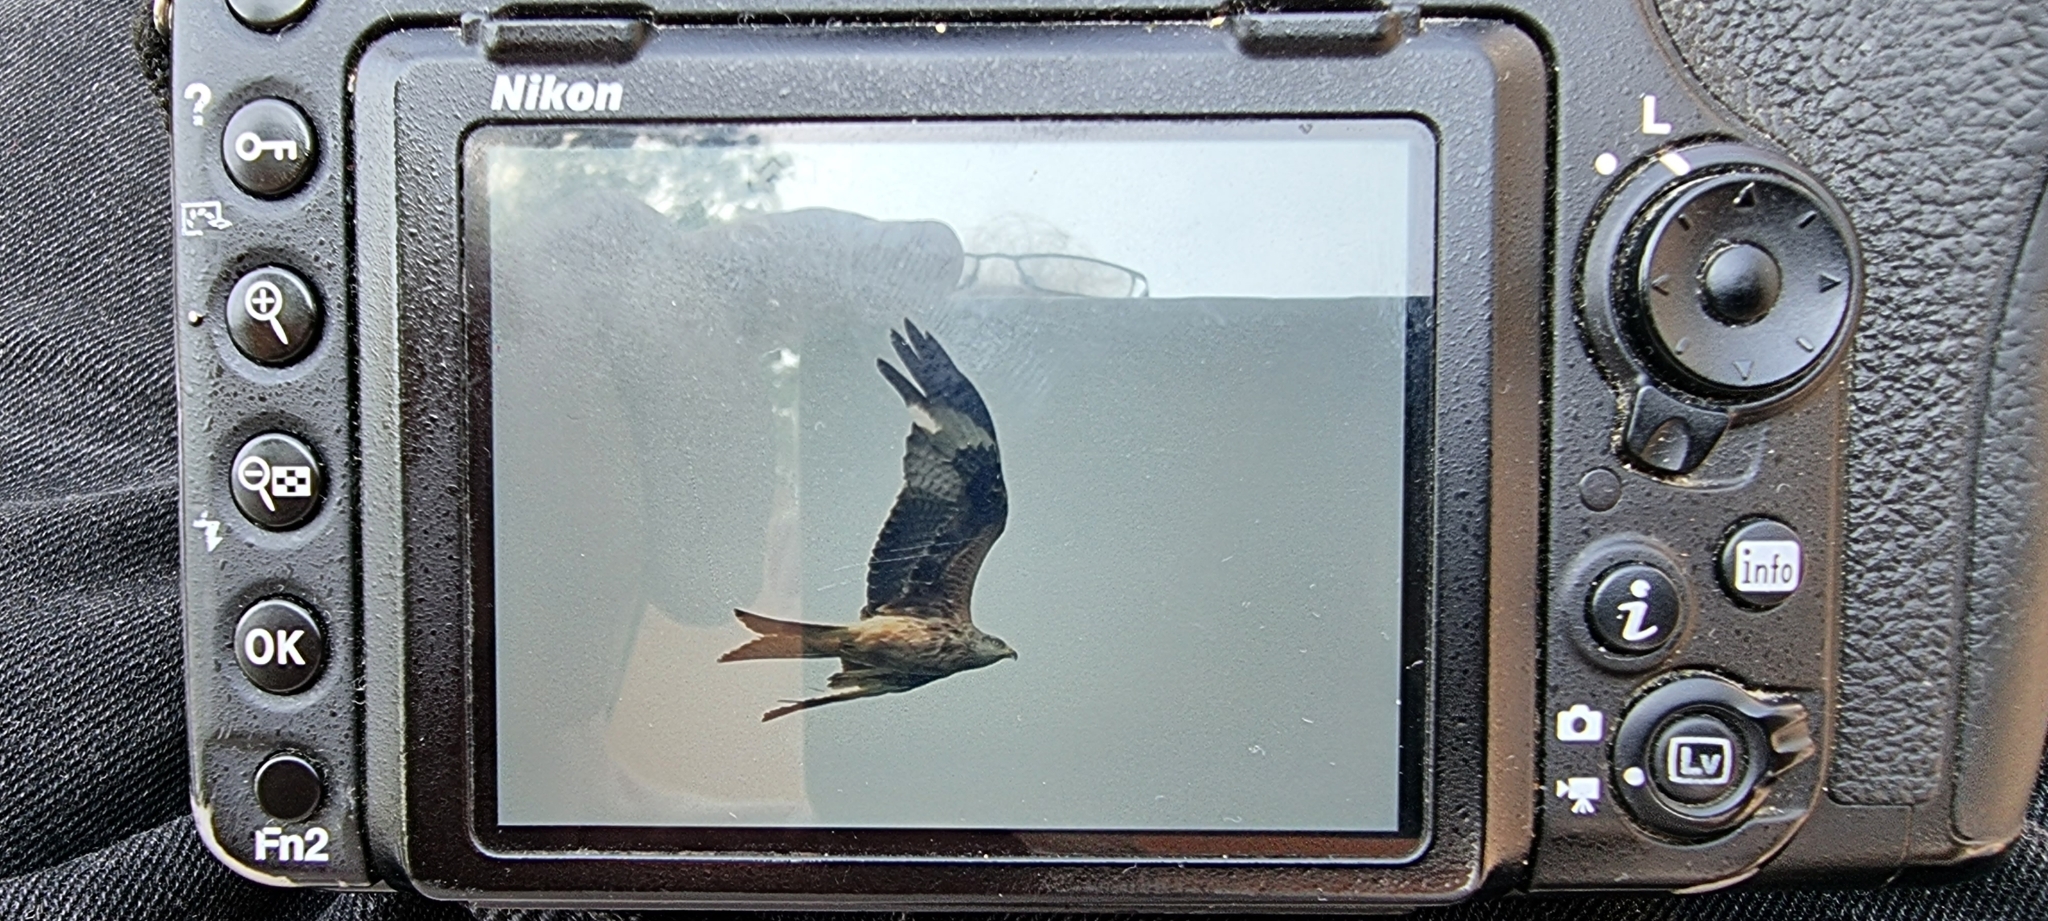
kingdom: Animalia
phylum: Chordata
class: Aves
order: Accipitriformes
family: Accipitridae
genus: Milvus
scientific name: Milvus milvus
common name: Red kite
